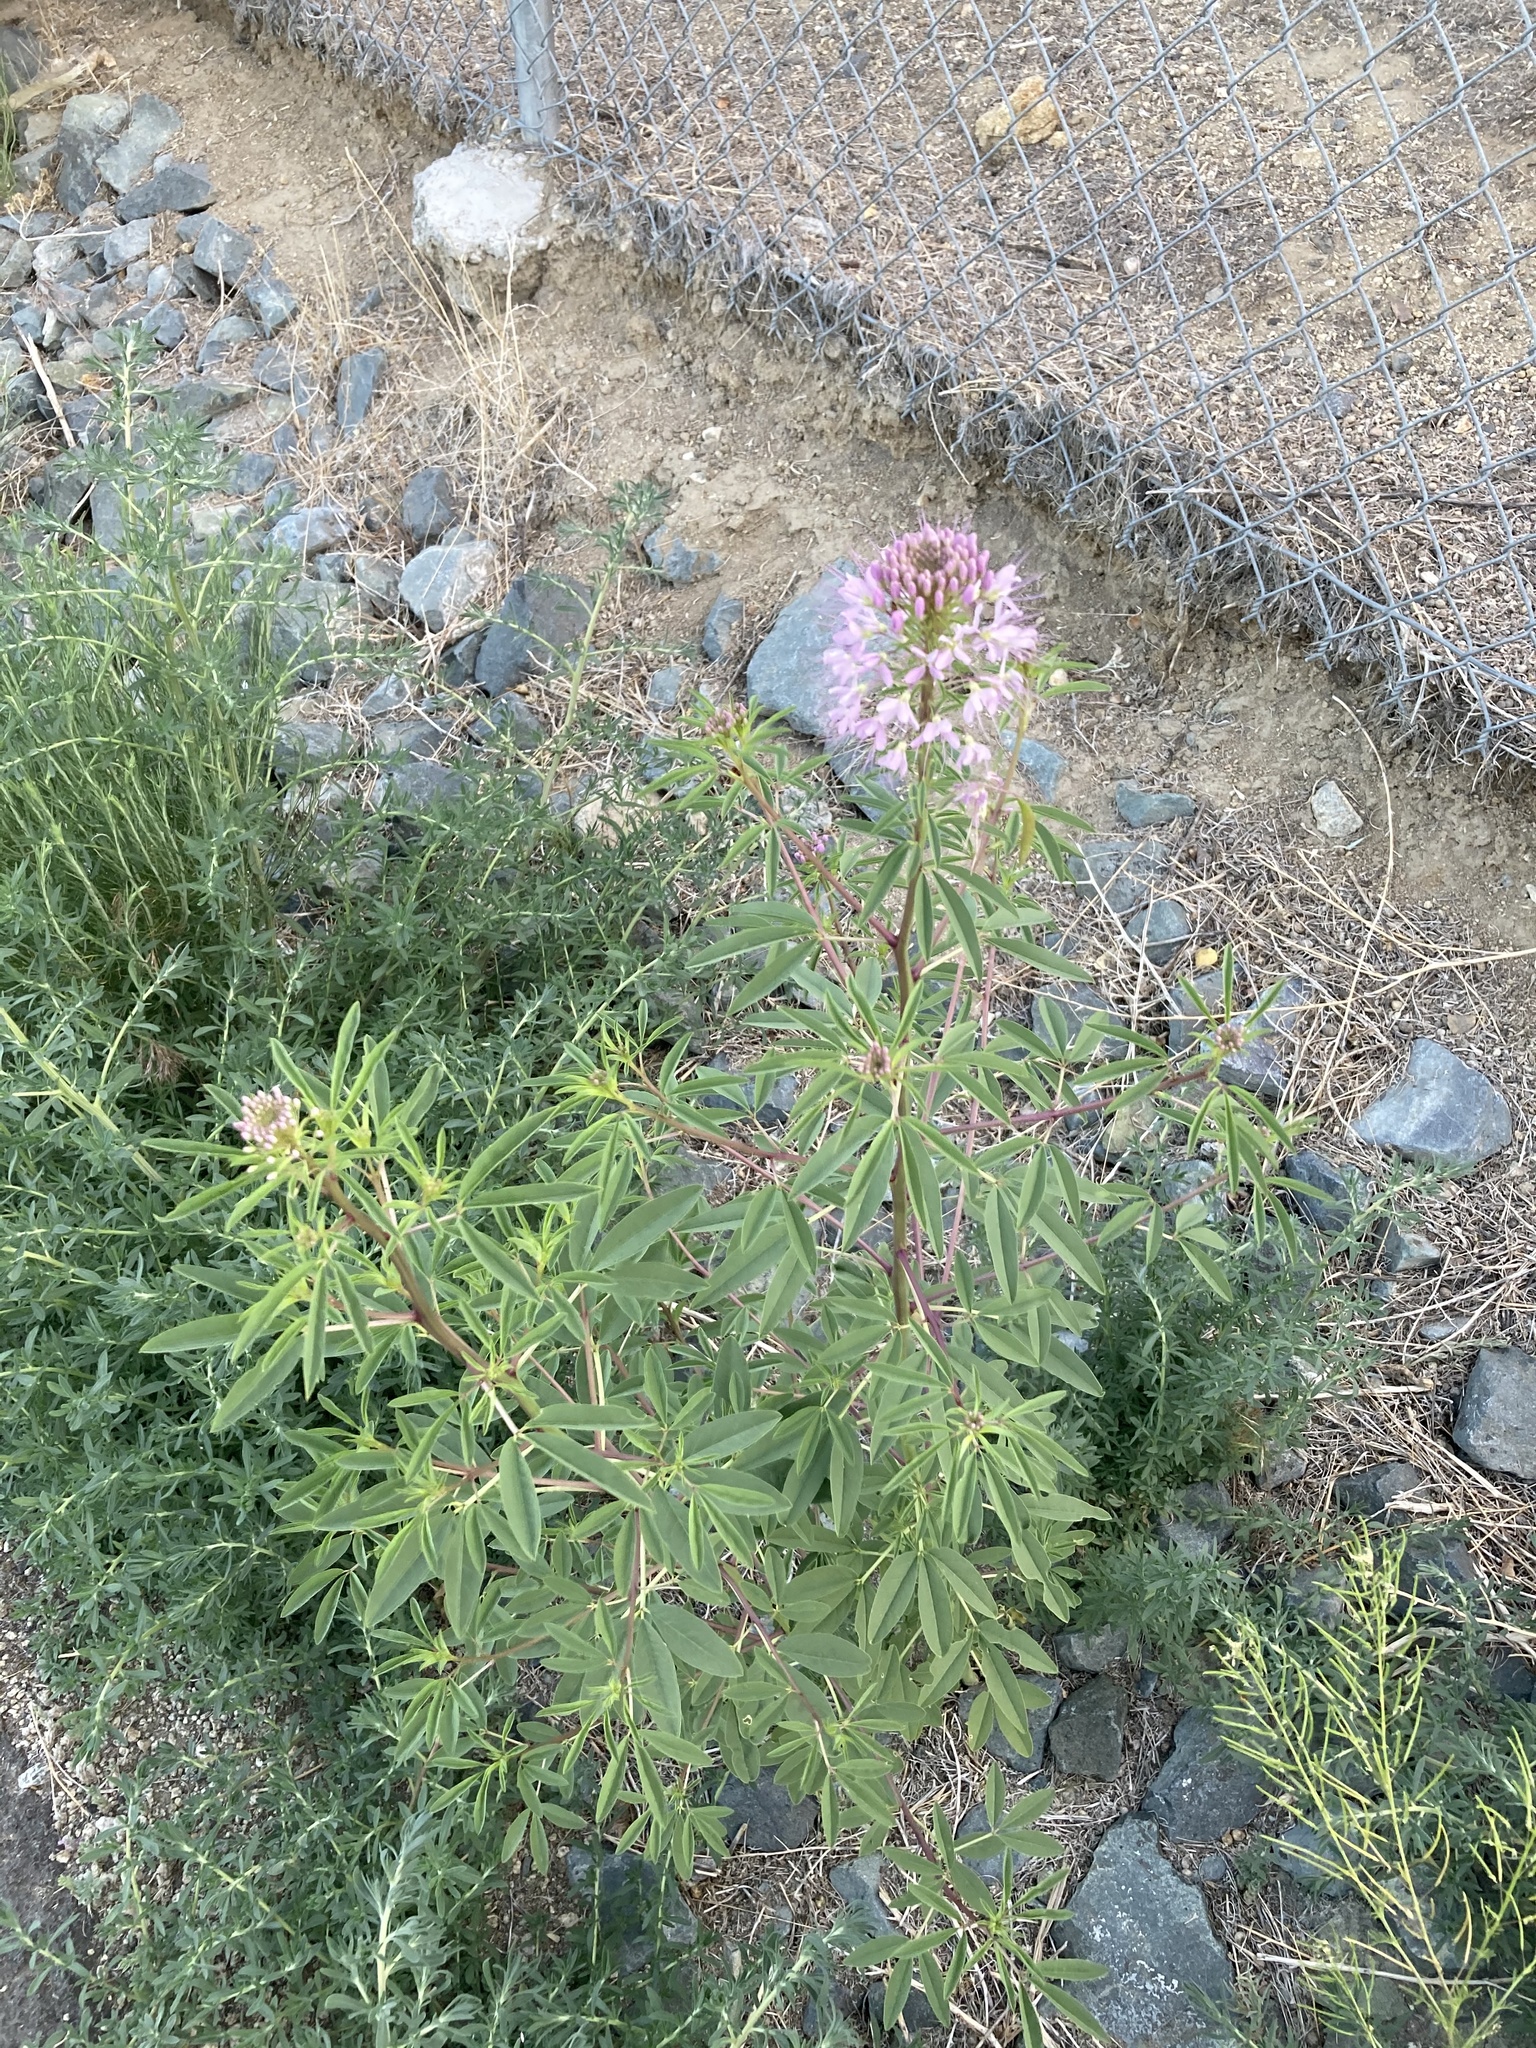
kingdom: Plantae
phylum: Tracheophyta
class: Magnoliopsida
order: Brassicales
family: Cleomaceae
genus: Cleomella
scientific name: Cleomella serrulata
